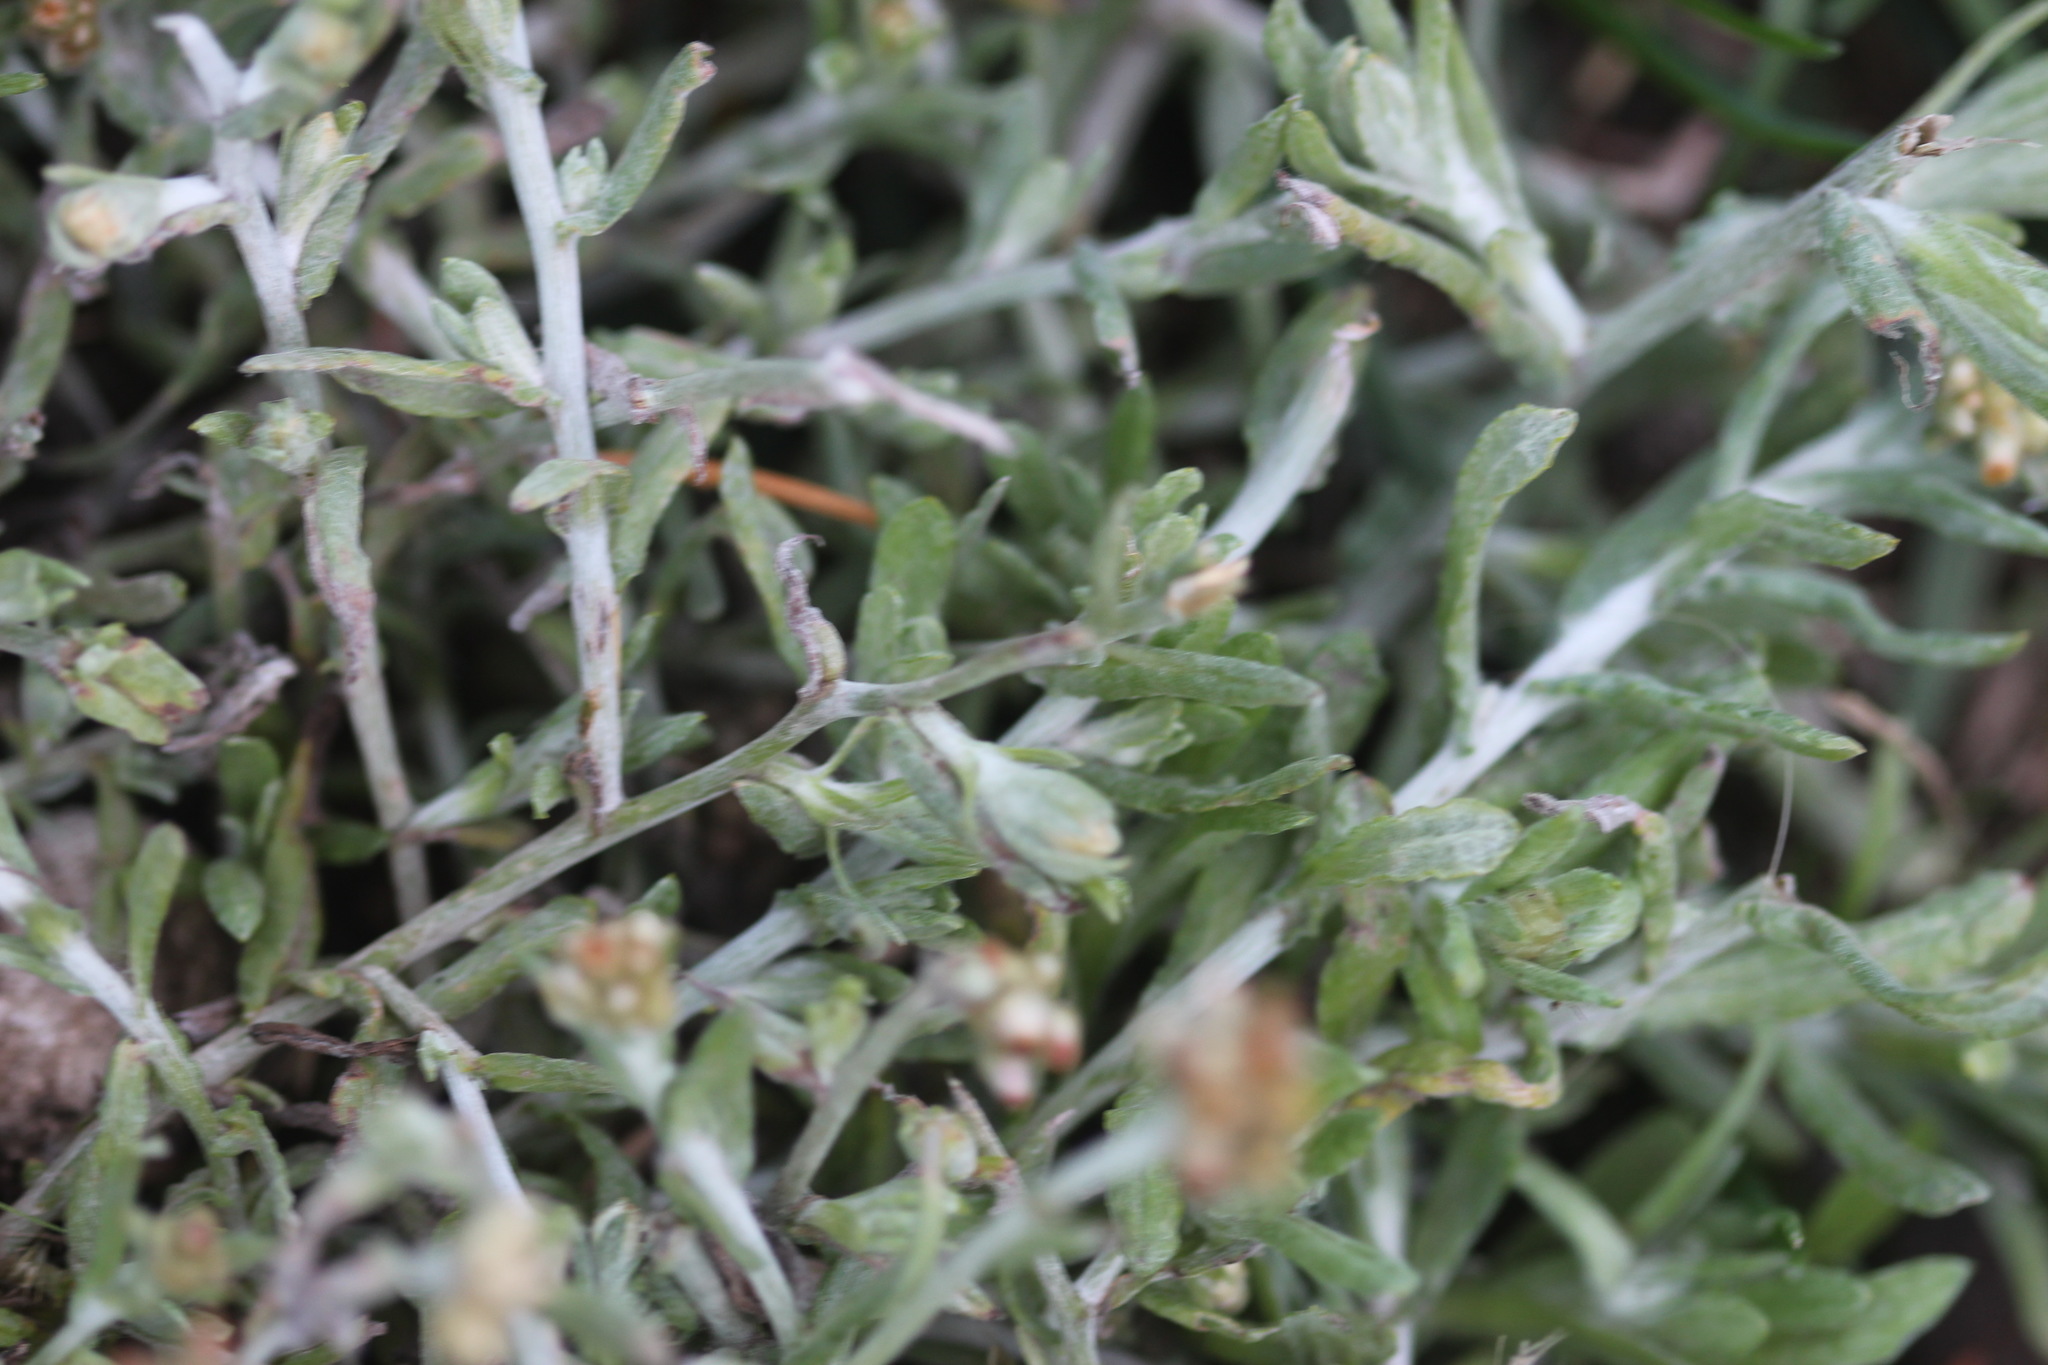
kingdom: Plantae
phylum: Tracheophyta
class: Magnoliopsida
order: Asterales
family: Asteraceae
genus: Helichrysum
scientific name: Helichrysum luteoalbum
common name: Daisy
